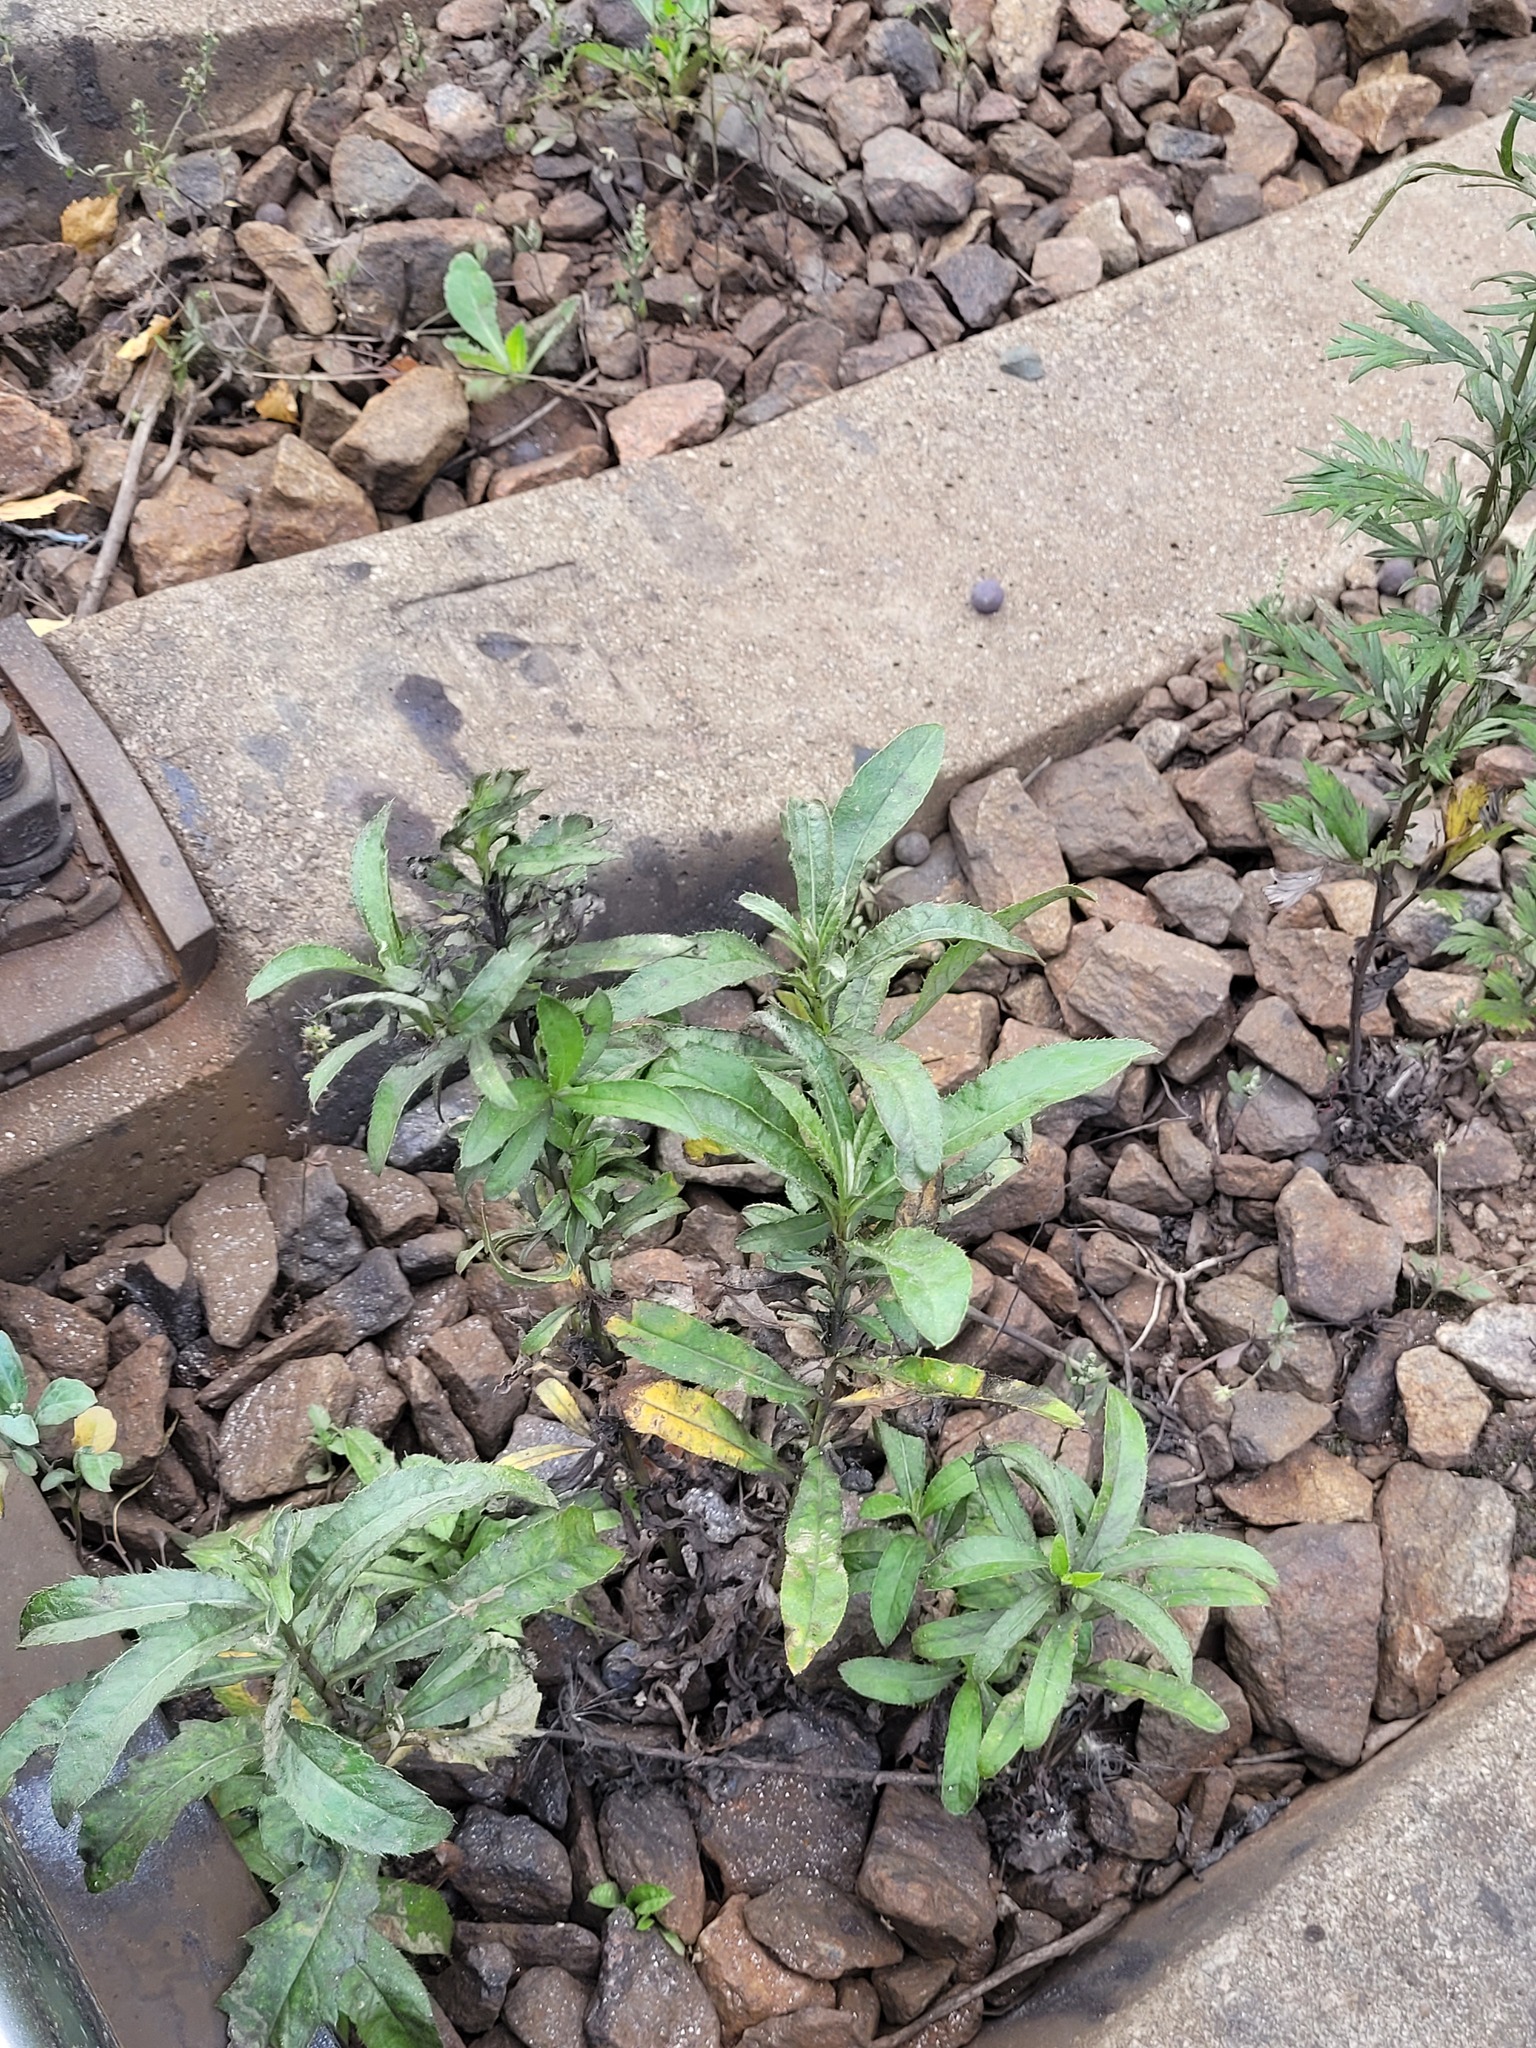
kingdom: Plantae
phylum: Tracheophyta
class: Magnoliopsida
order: Asterales
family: Asteraceae
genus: Cirsium
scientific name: Cirsium arvense
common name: Creeping thistle
